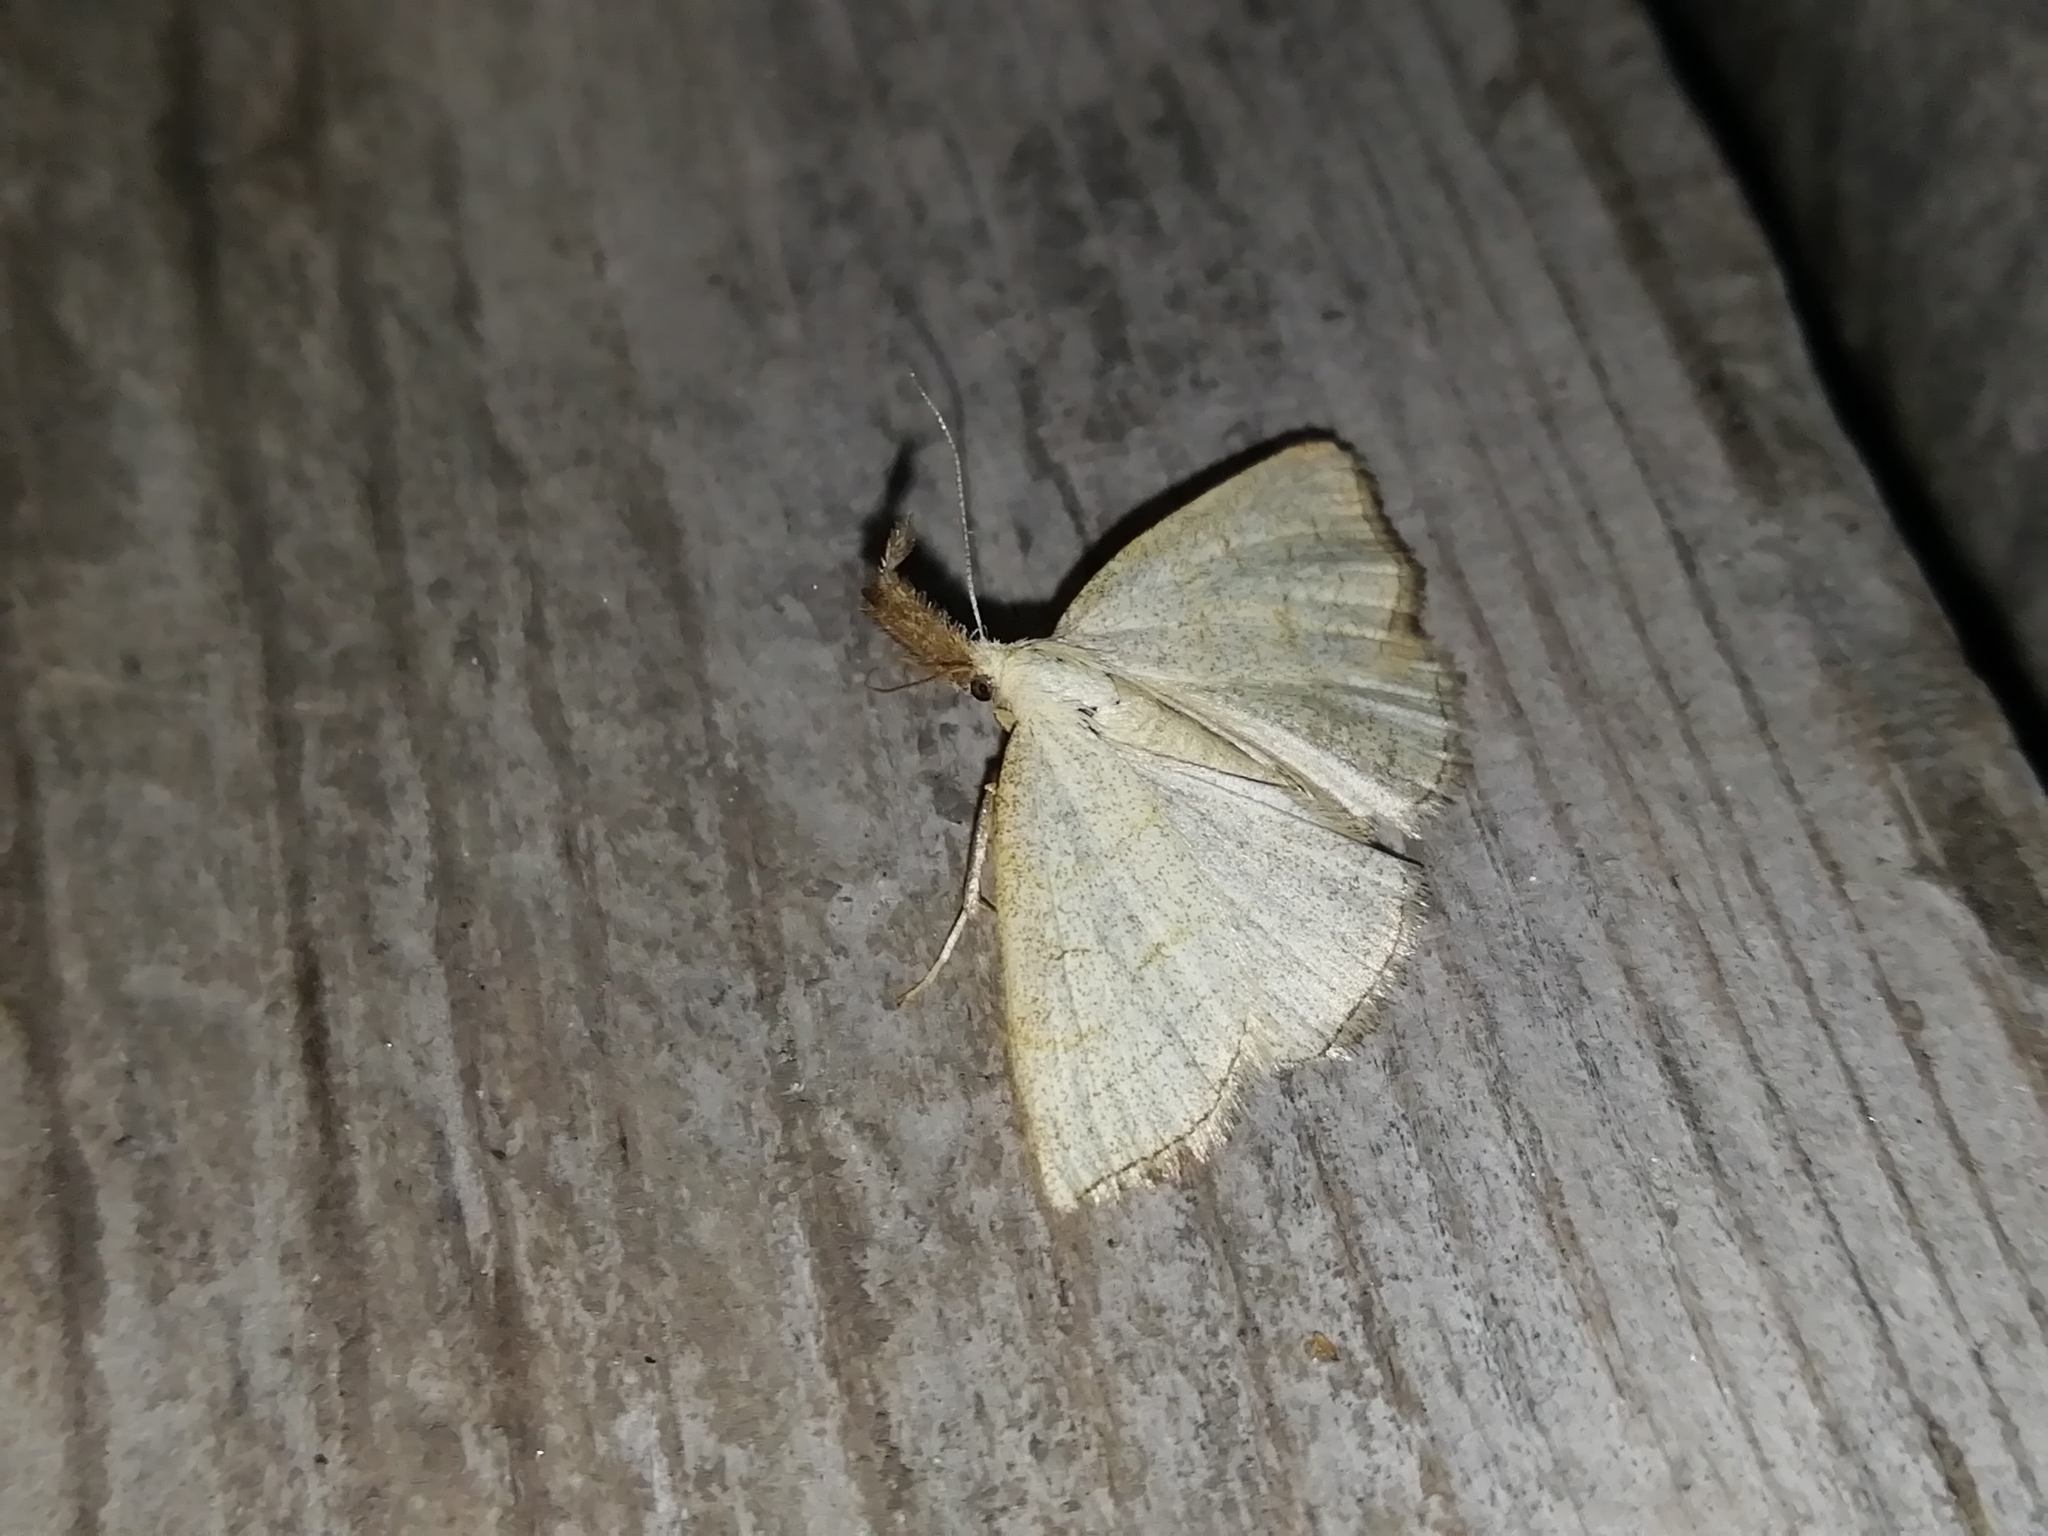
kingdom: Animalia
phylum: Arthropoda
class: Insecta
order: Lepidoptera
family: Erebidae
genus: Polypogon
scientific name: Polypogon tentacularia
